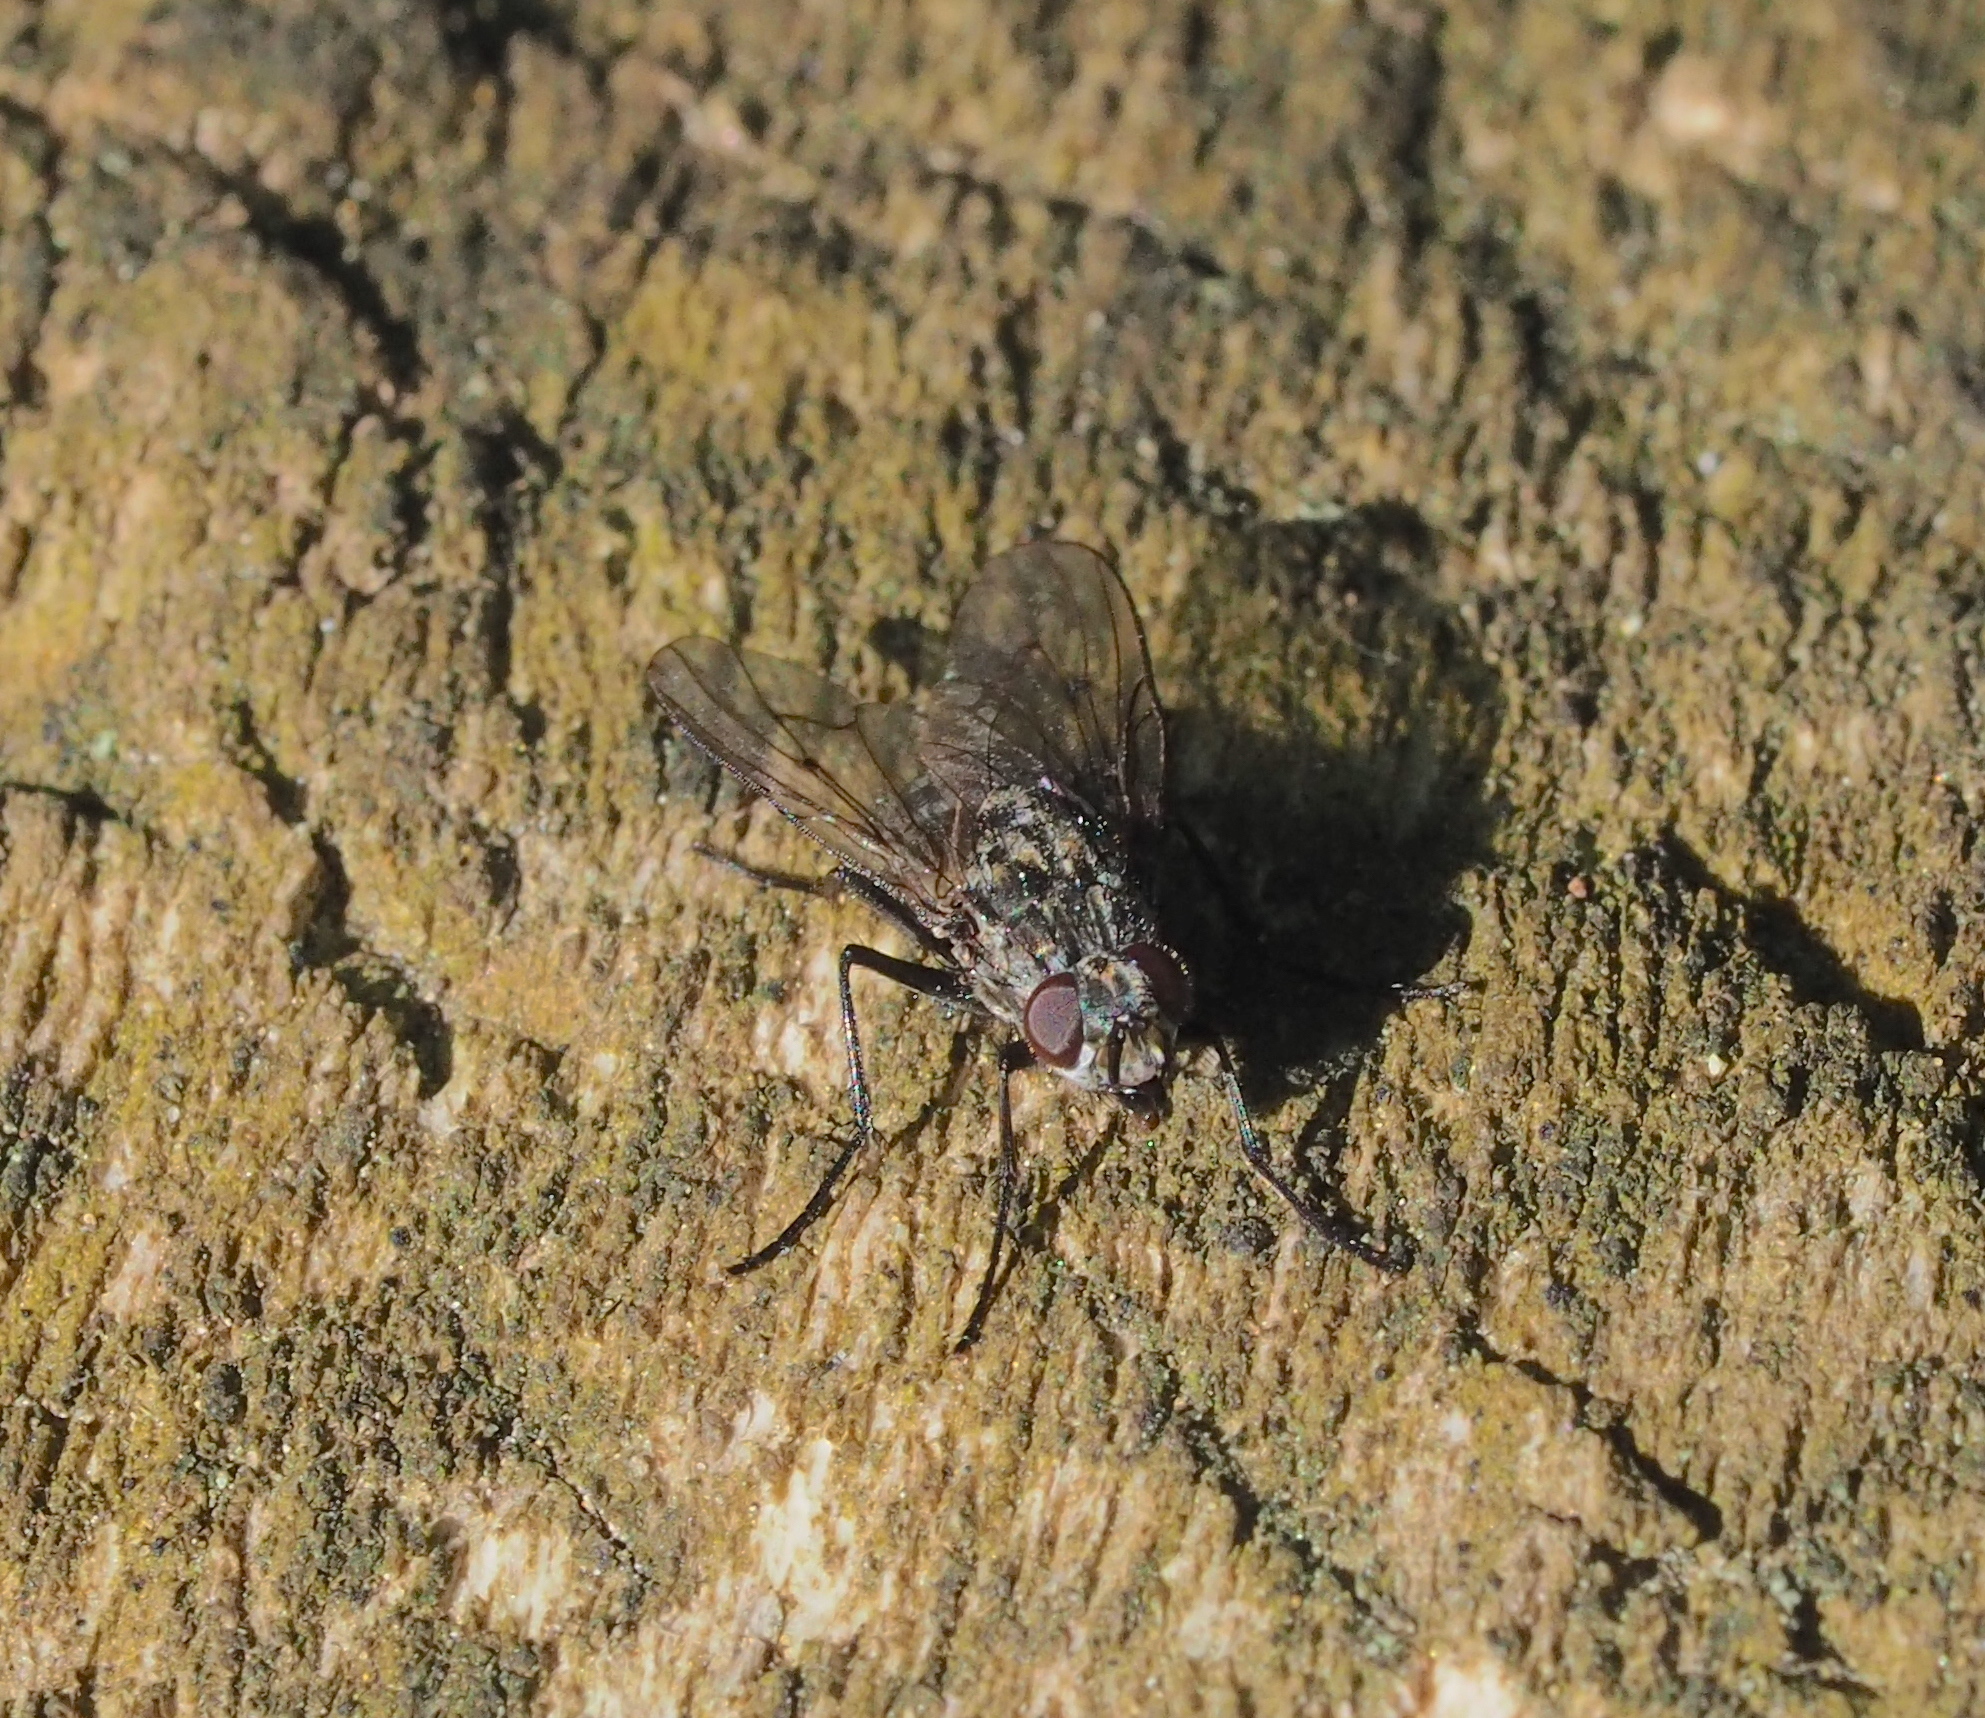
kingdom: Animalia
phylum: Arthropoda
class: Insecta
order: Diptera
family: Muscidae
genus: Phaonia
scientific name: Phaonia tuguriorum
